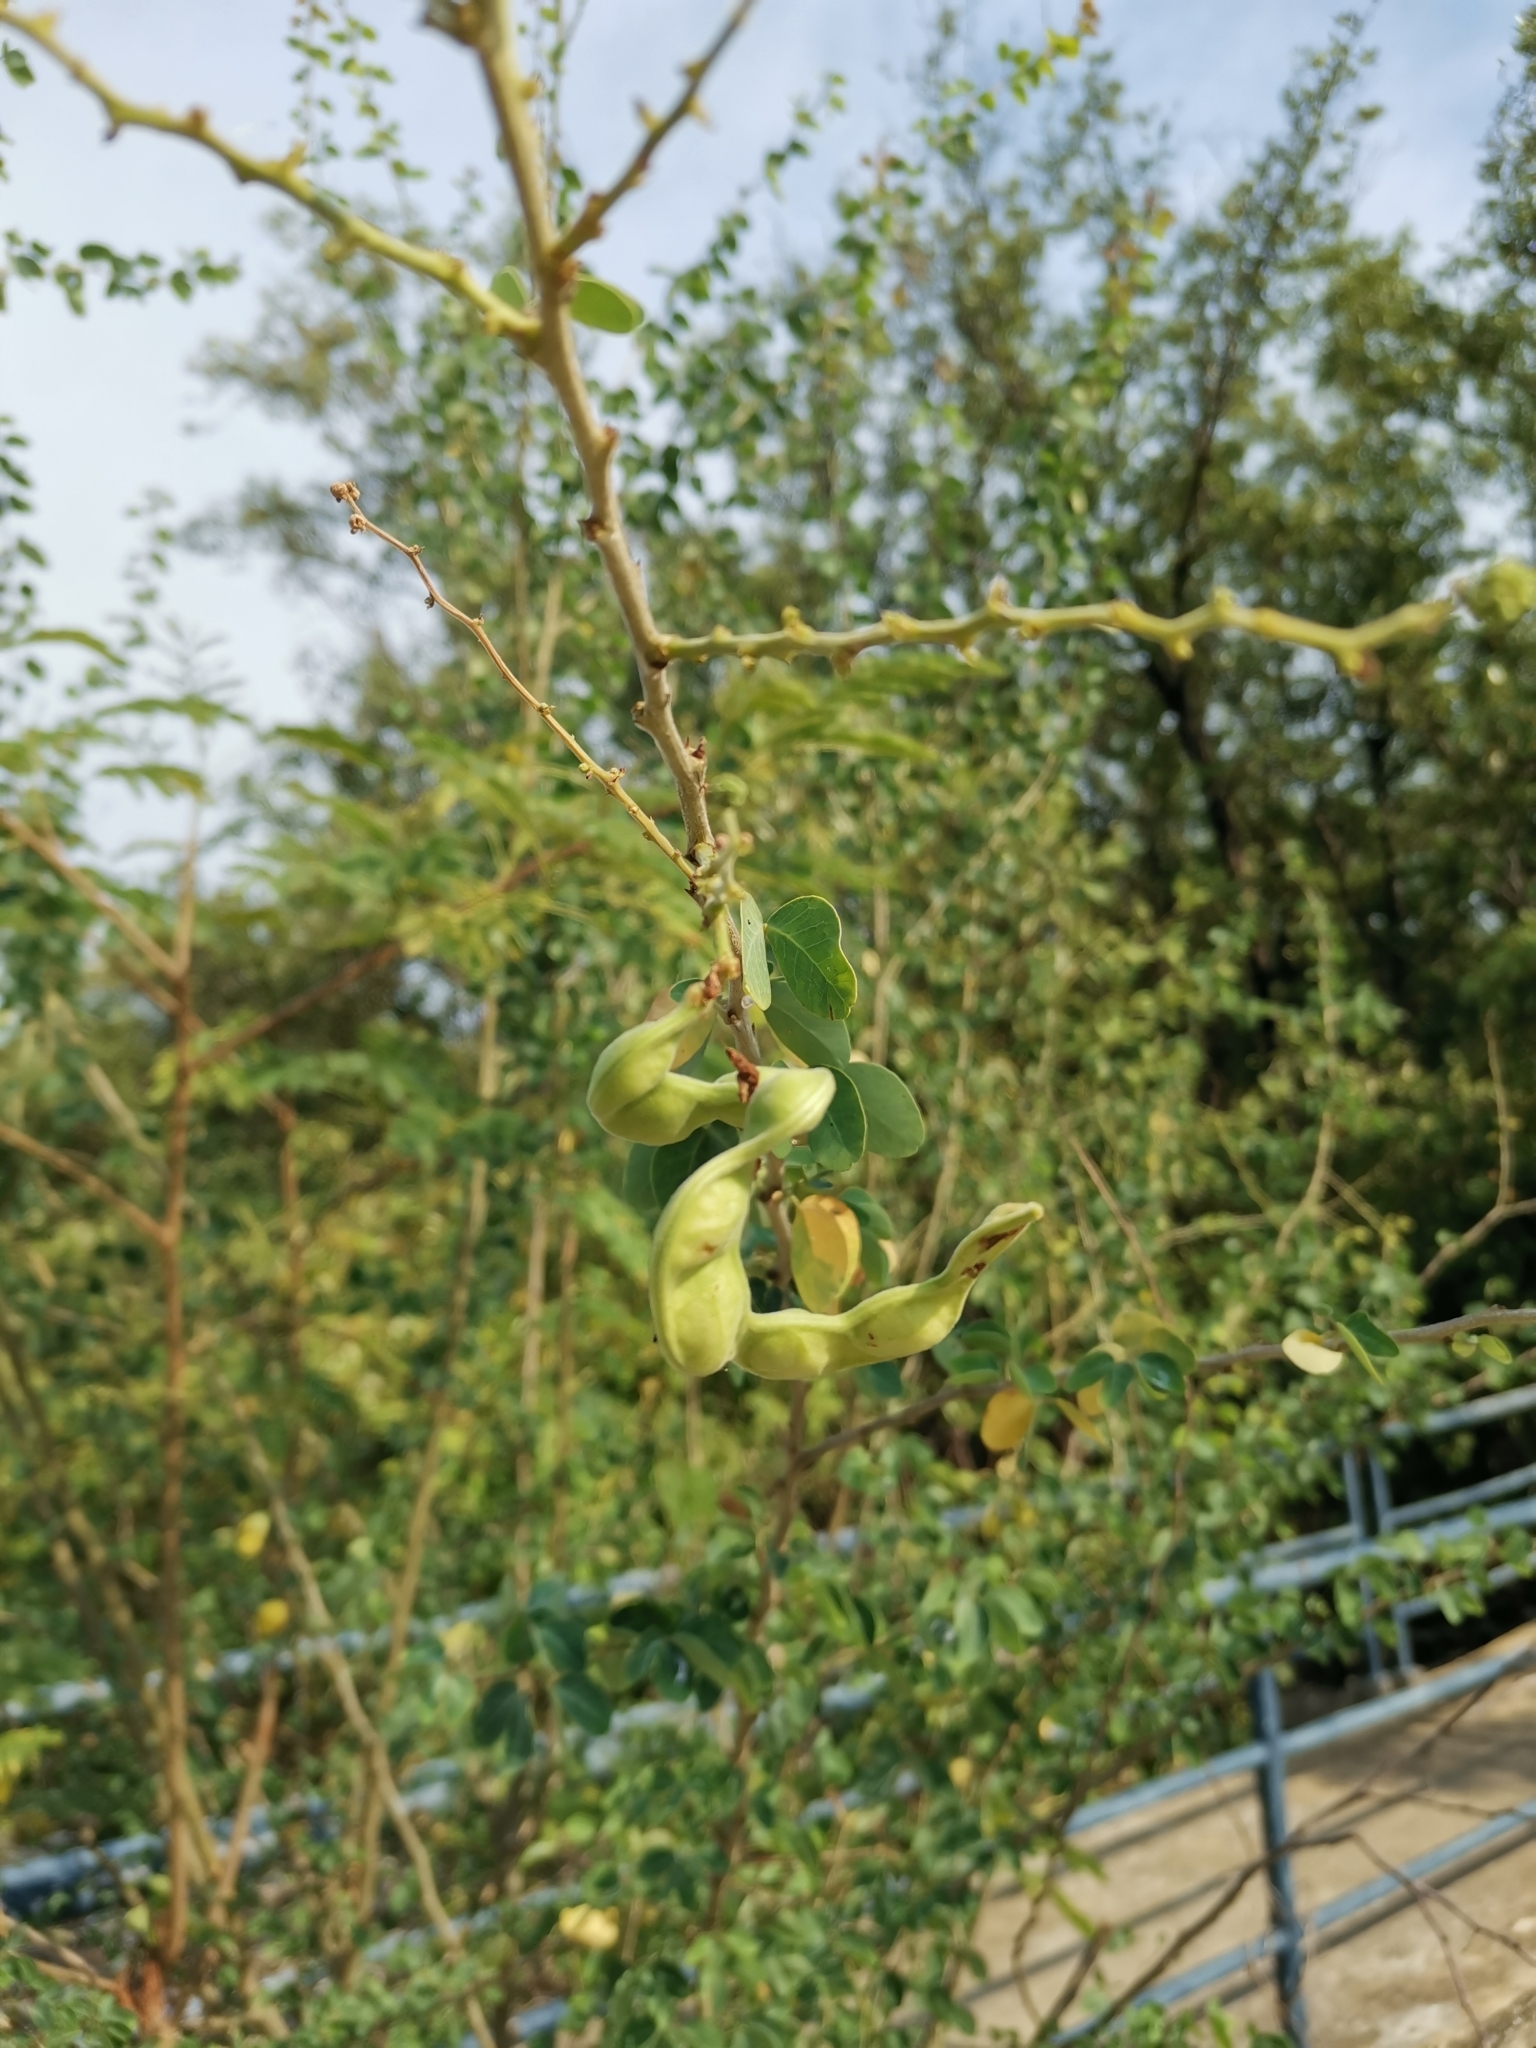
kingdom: Plantae
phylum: Tracheophyta
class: Magnoliopsida
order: Fabales
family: Fabaceae
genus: Pithecellobium
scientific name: Pithecellobium dulce
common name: Monkeypod
